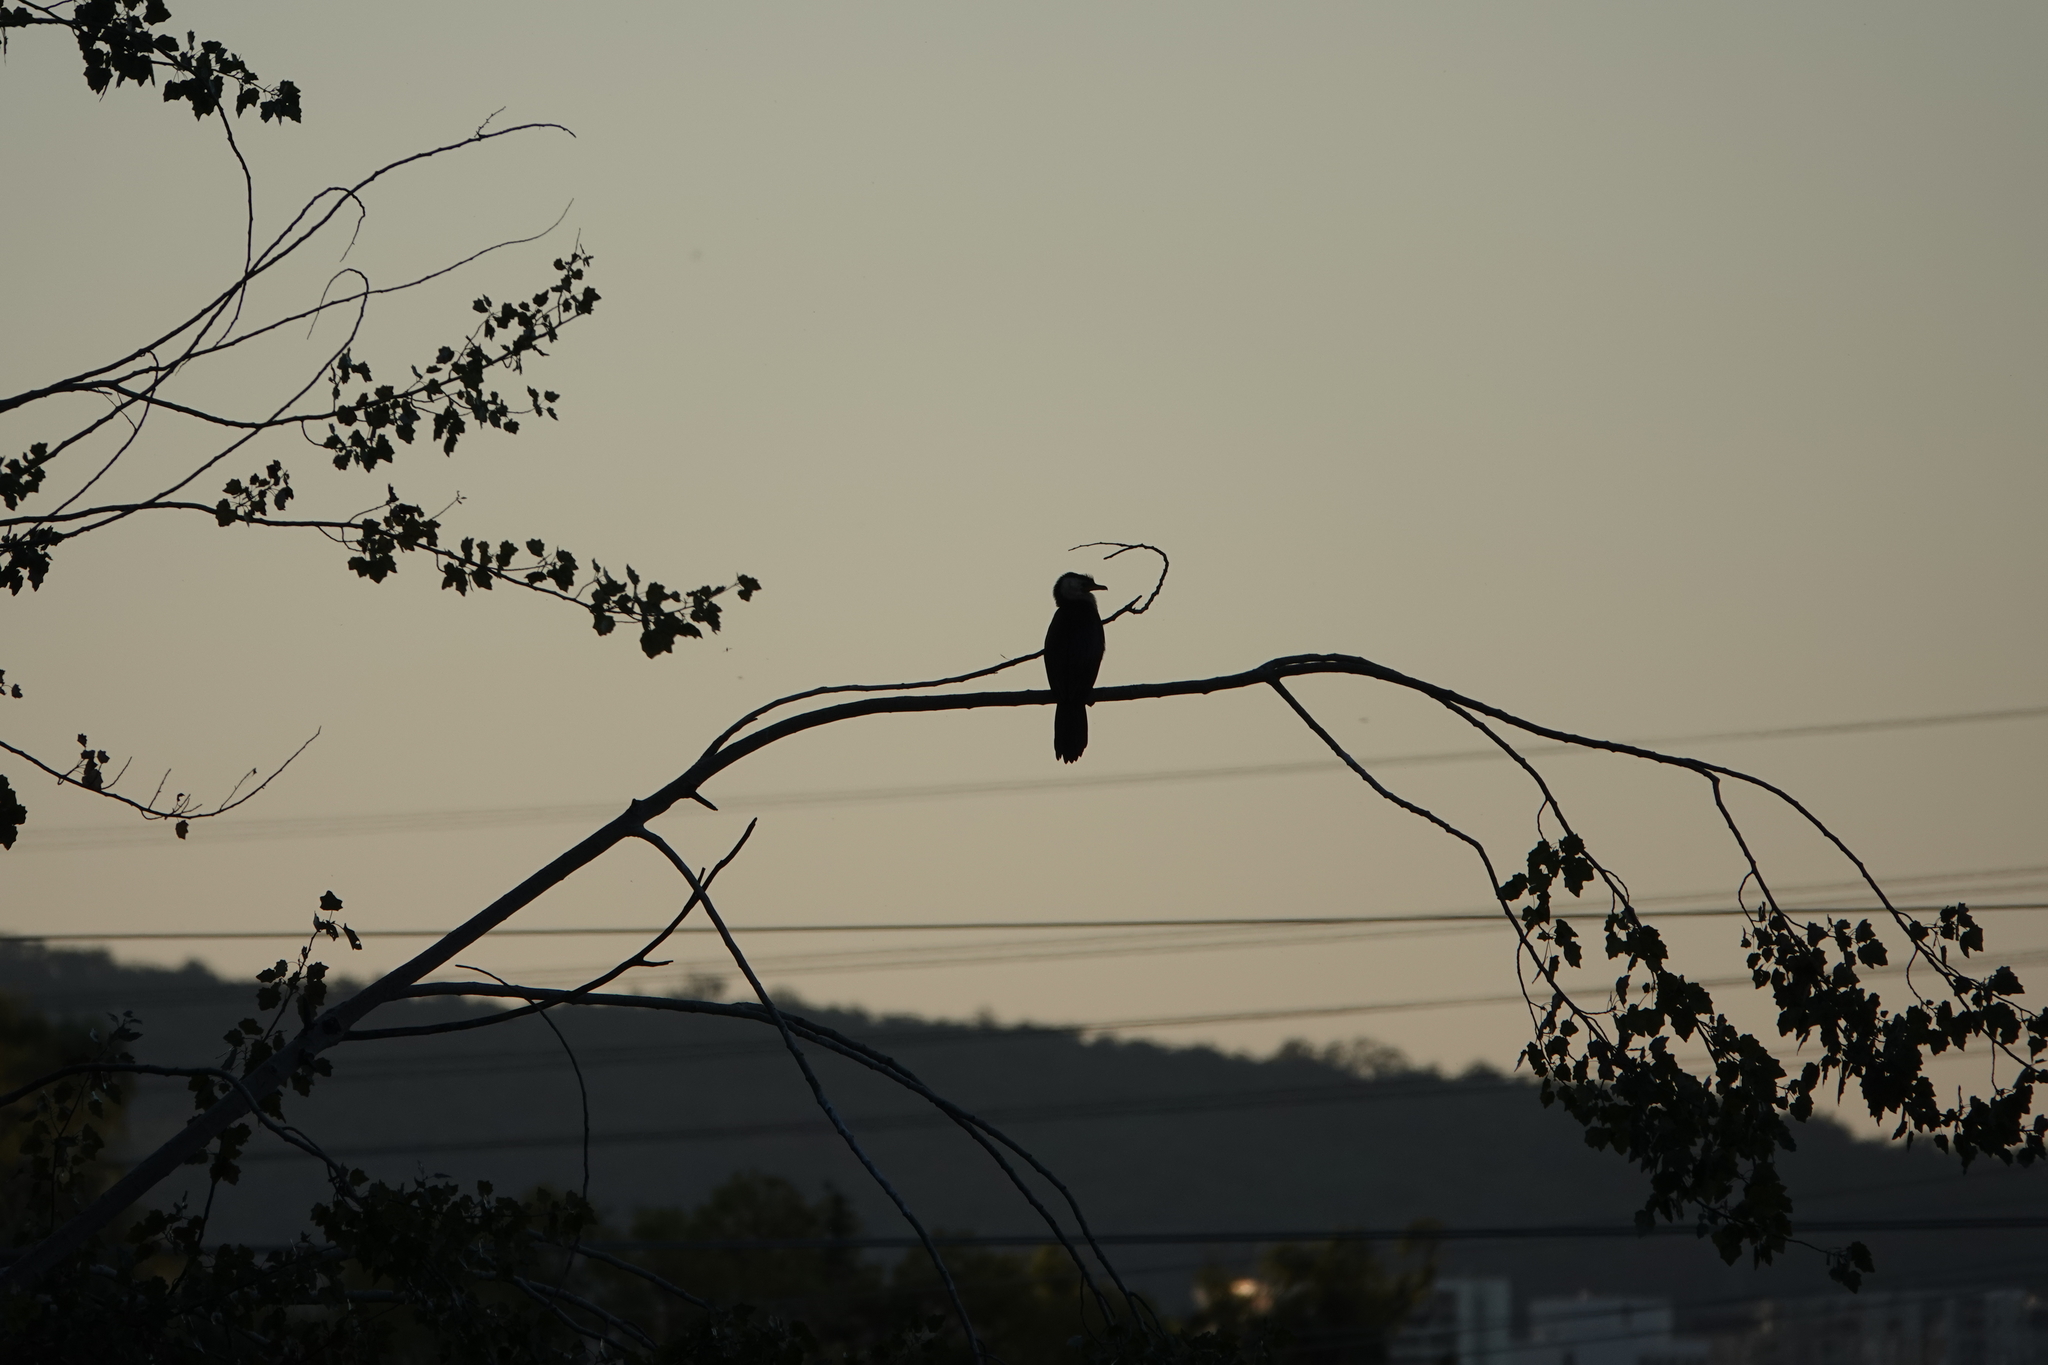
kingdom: Animalia
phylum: Chordata
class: Aves
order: Suliformes
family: Phalacrocoracidae
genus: Microcarbo
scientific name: Microcarbo melanoleucos
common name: Little pied cormorant
